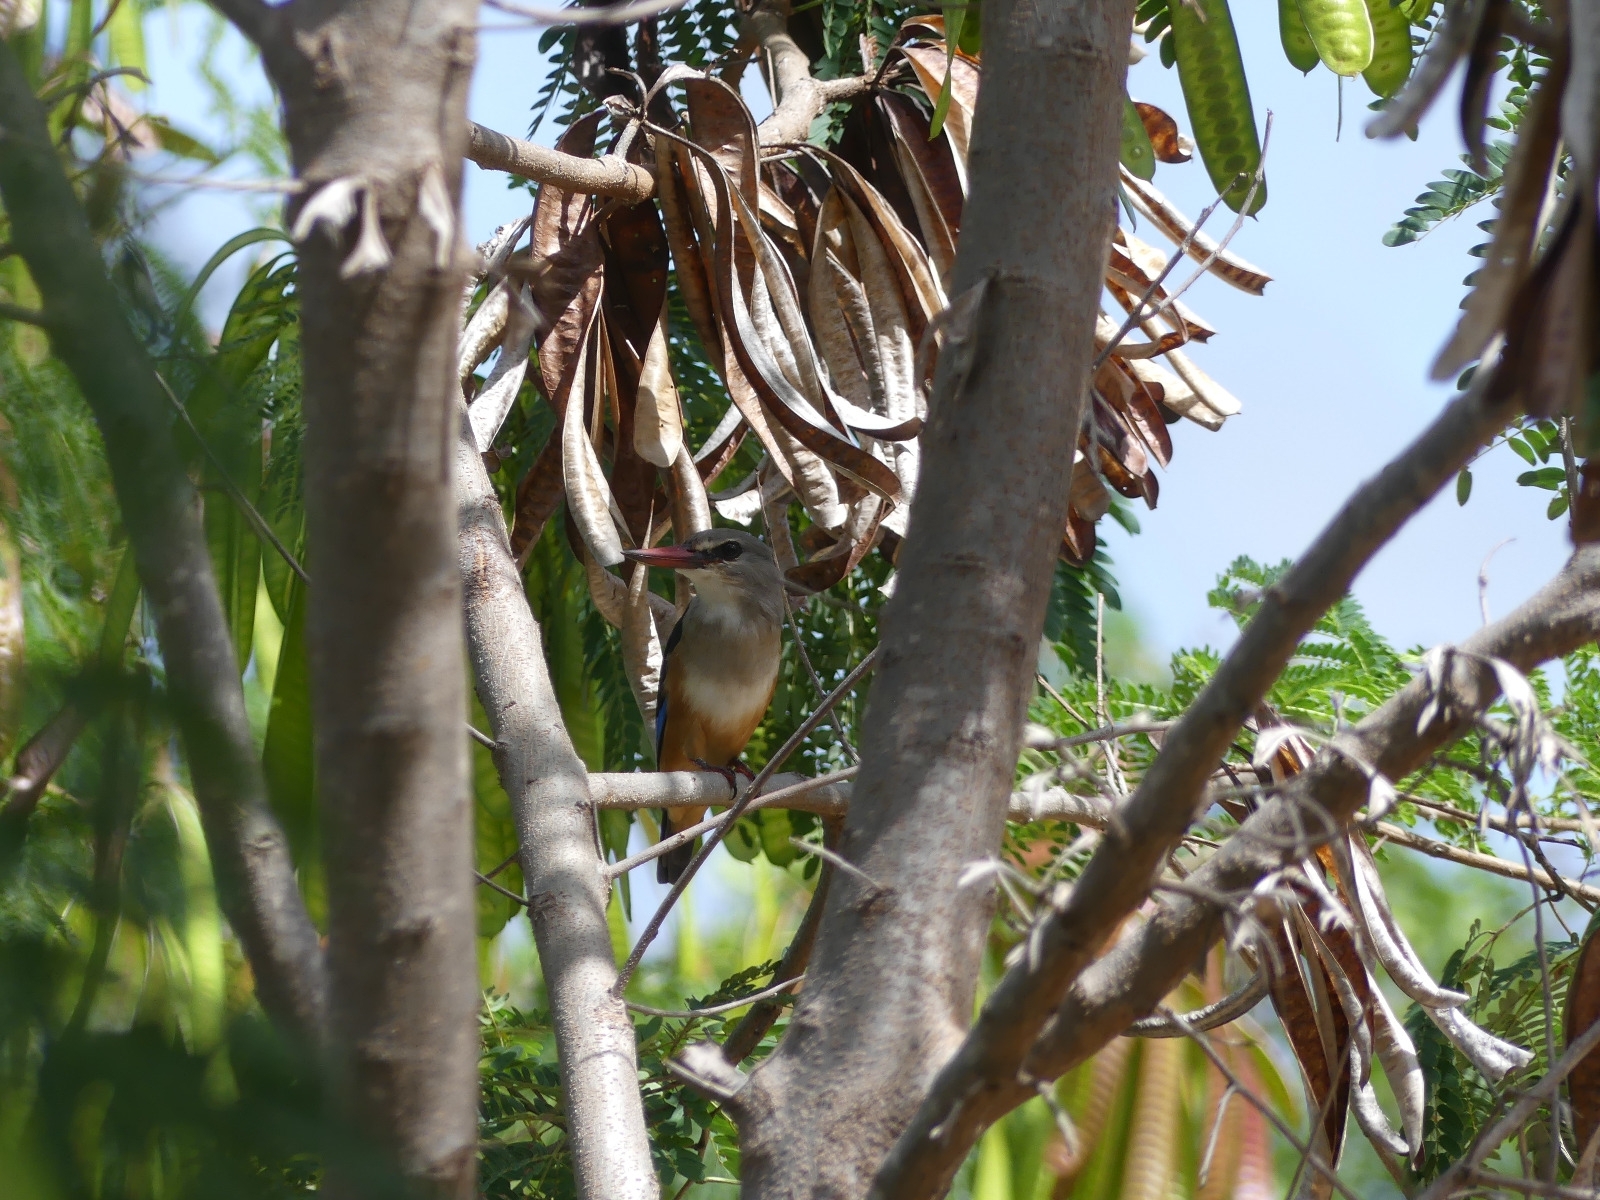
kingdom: Animalia
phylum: Chordata
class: Aves
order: Coraciiformes
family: Alcedinidae
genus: Halcyon
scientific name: Halcyon leucocephala
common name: Grey-headed kingfisher
